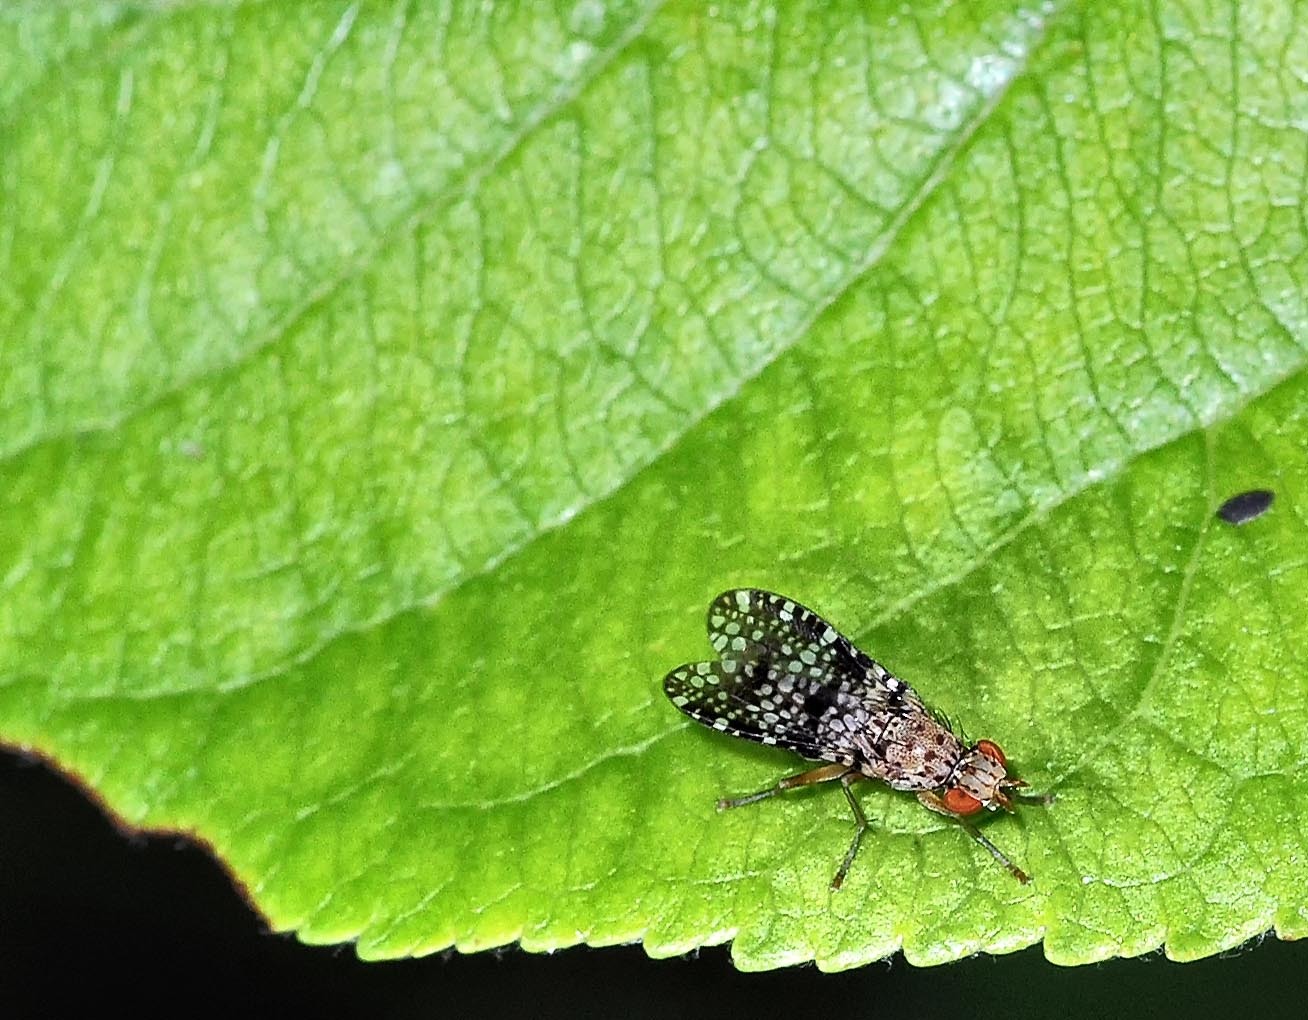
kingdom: Animalia
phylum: Arthropoda
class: Insecta
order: Diptera
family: Sciomyzidae
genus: Trypetoptera
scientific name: Trypetoptera punctulata
